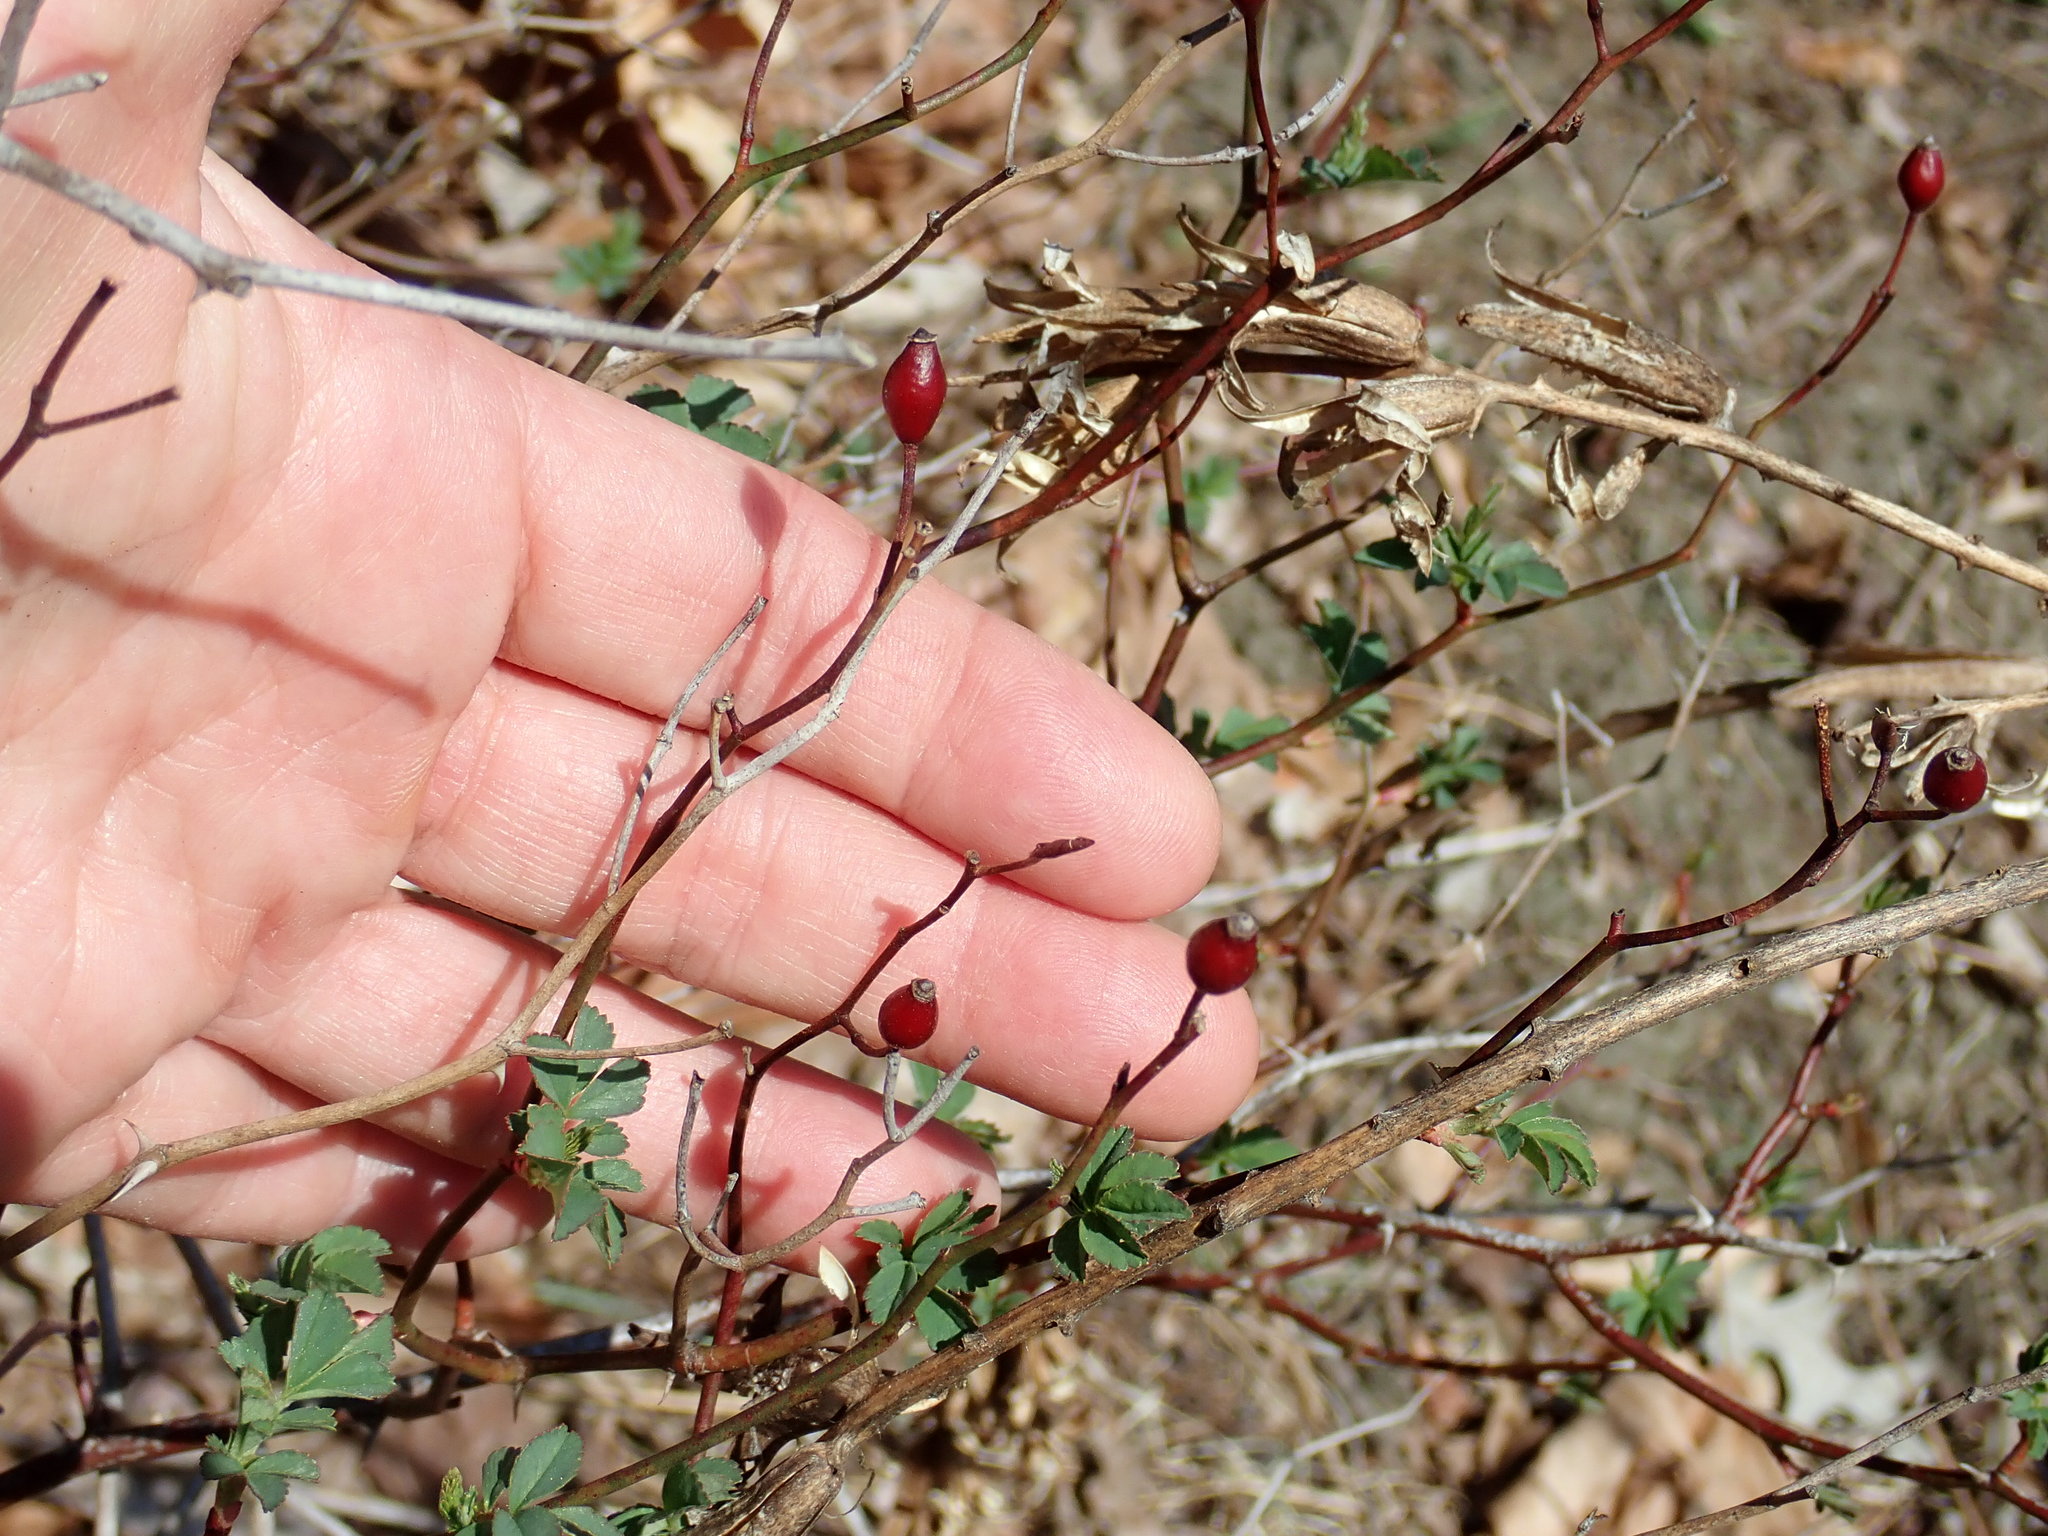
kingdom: Plantae
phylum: Tracheophyta
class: Magnoliopsida
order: Rosales
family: Rosaceae
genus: Rosa
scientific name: Rosa multiflora
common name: Multiflora rose
